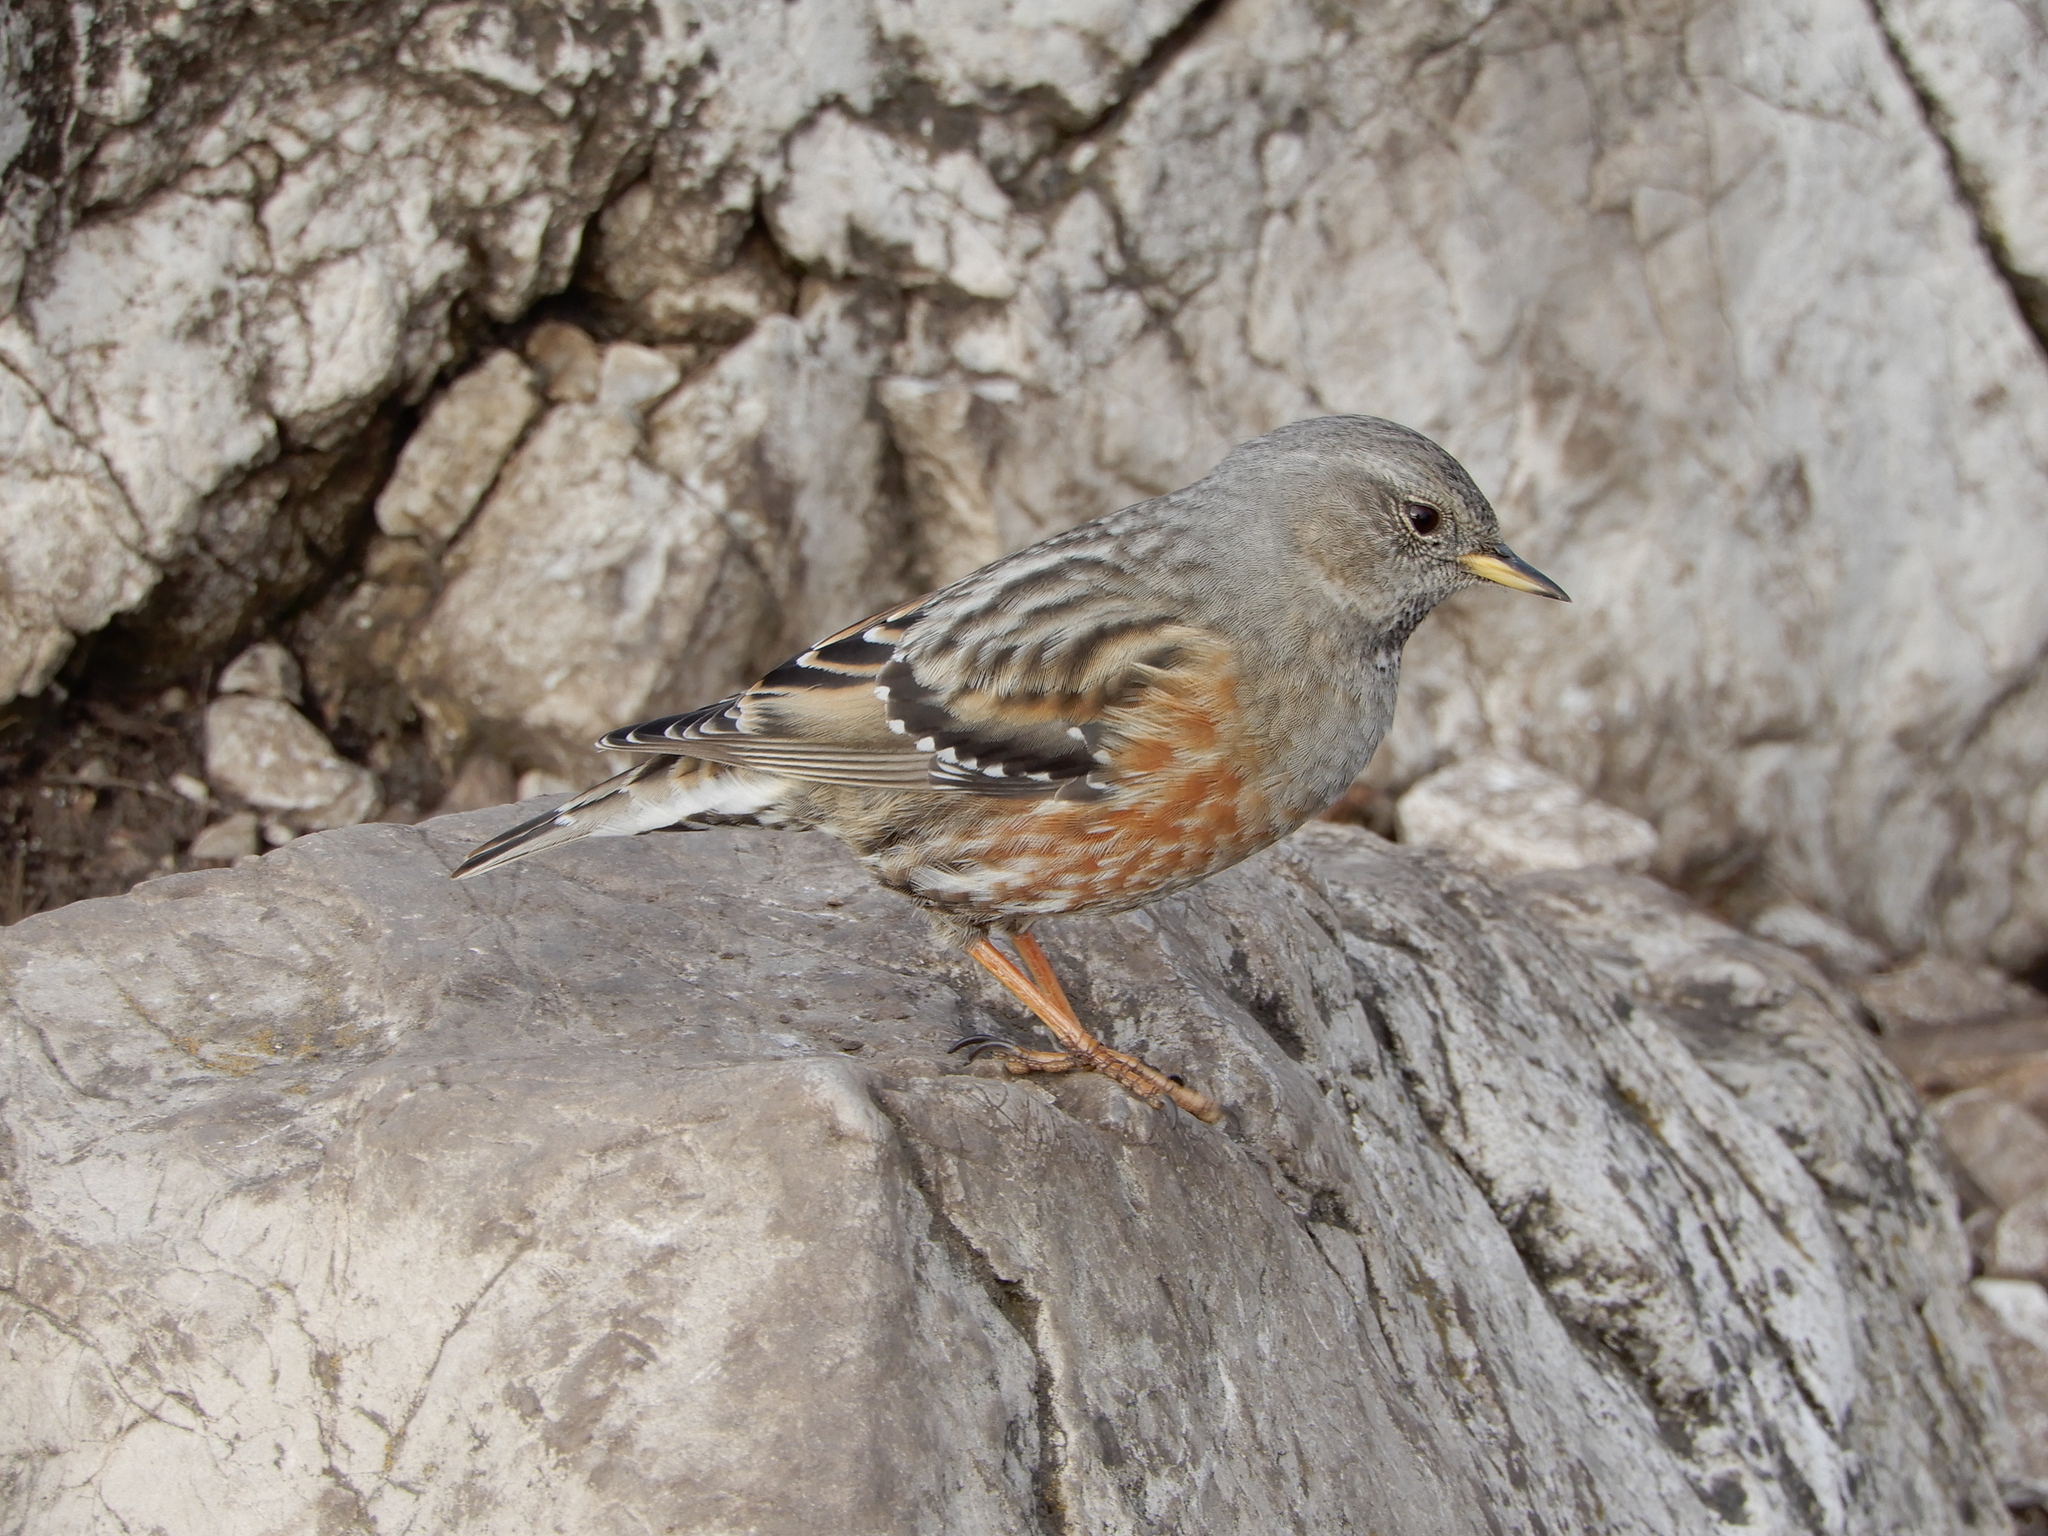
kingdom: Animalia
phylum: Chordata
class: Aves
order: Passeriformes
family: Prunellidae
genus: Prunella
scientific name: Prunella collaris
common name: Alpine accentor
